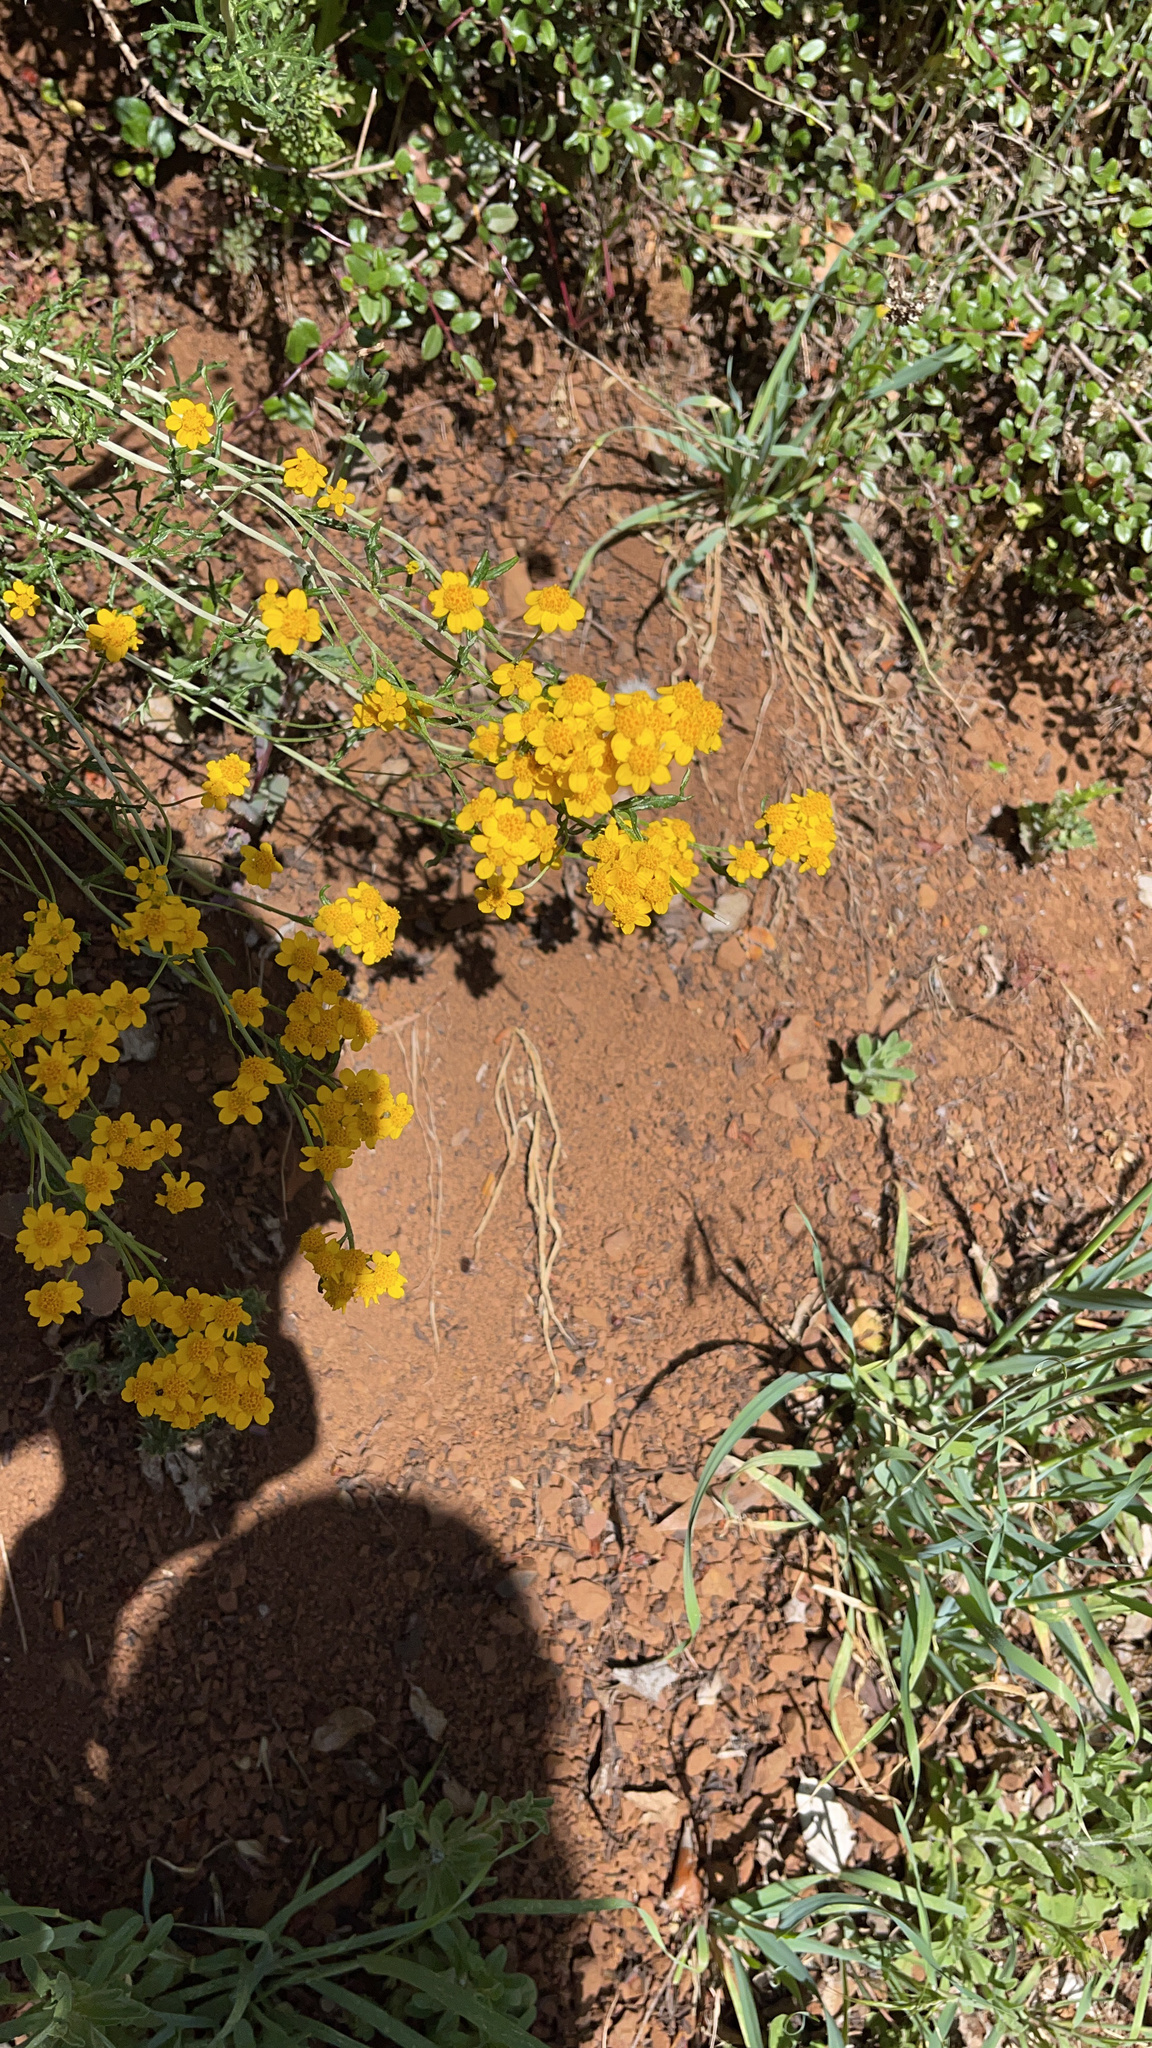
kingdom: Plantae
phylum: Tracheophyta
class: Magnoliopsida
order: Asterales
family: Asteraceae
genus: Eriophyllum
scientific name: Eriophyllum confertiflorum
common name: Golden-yarrow
